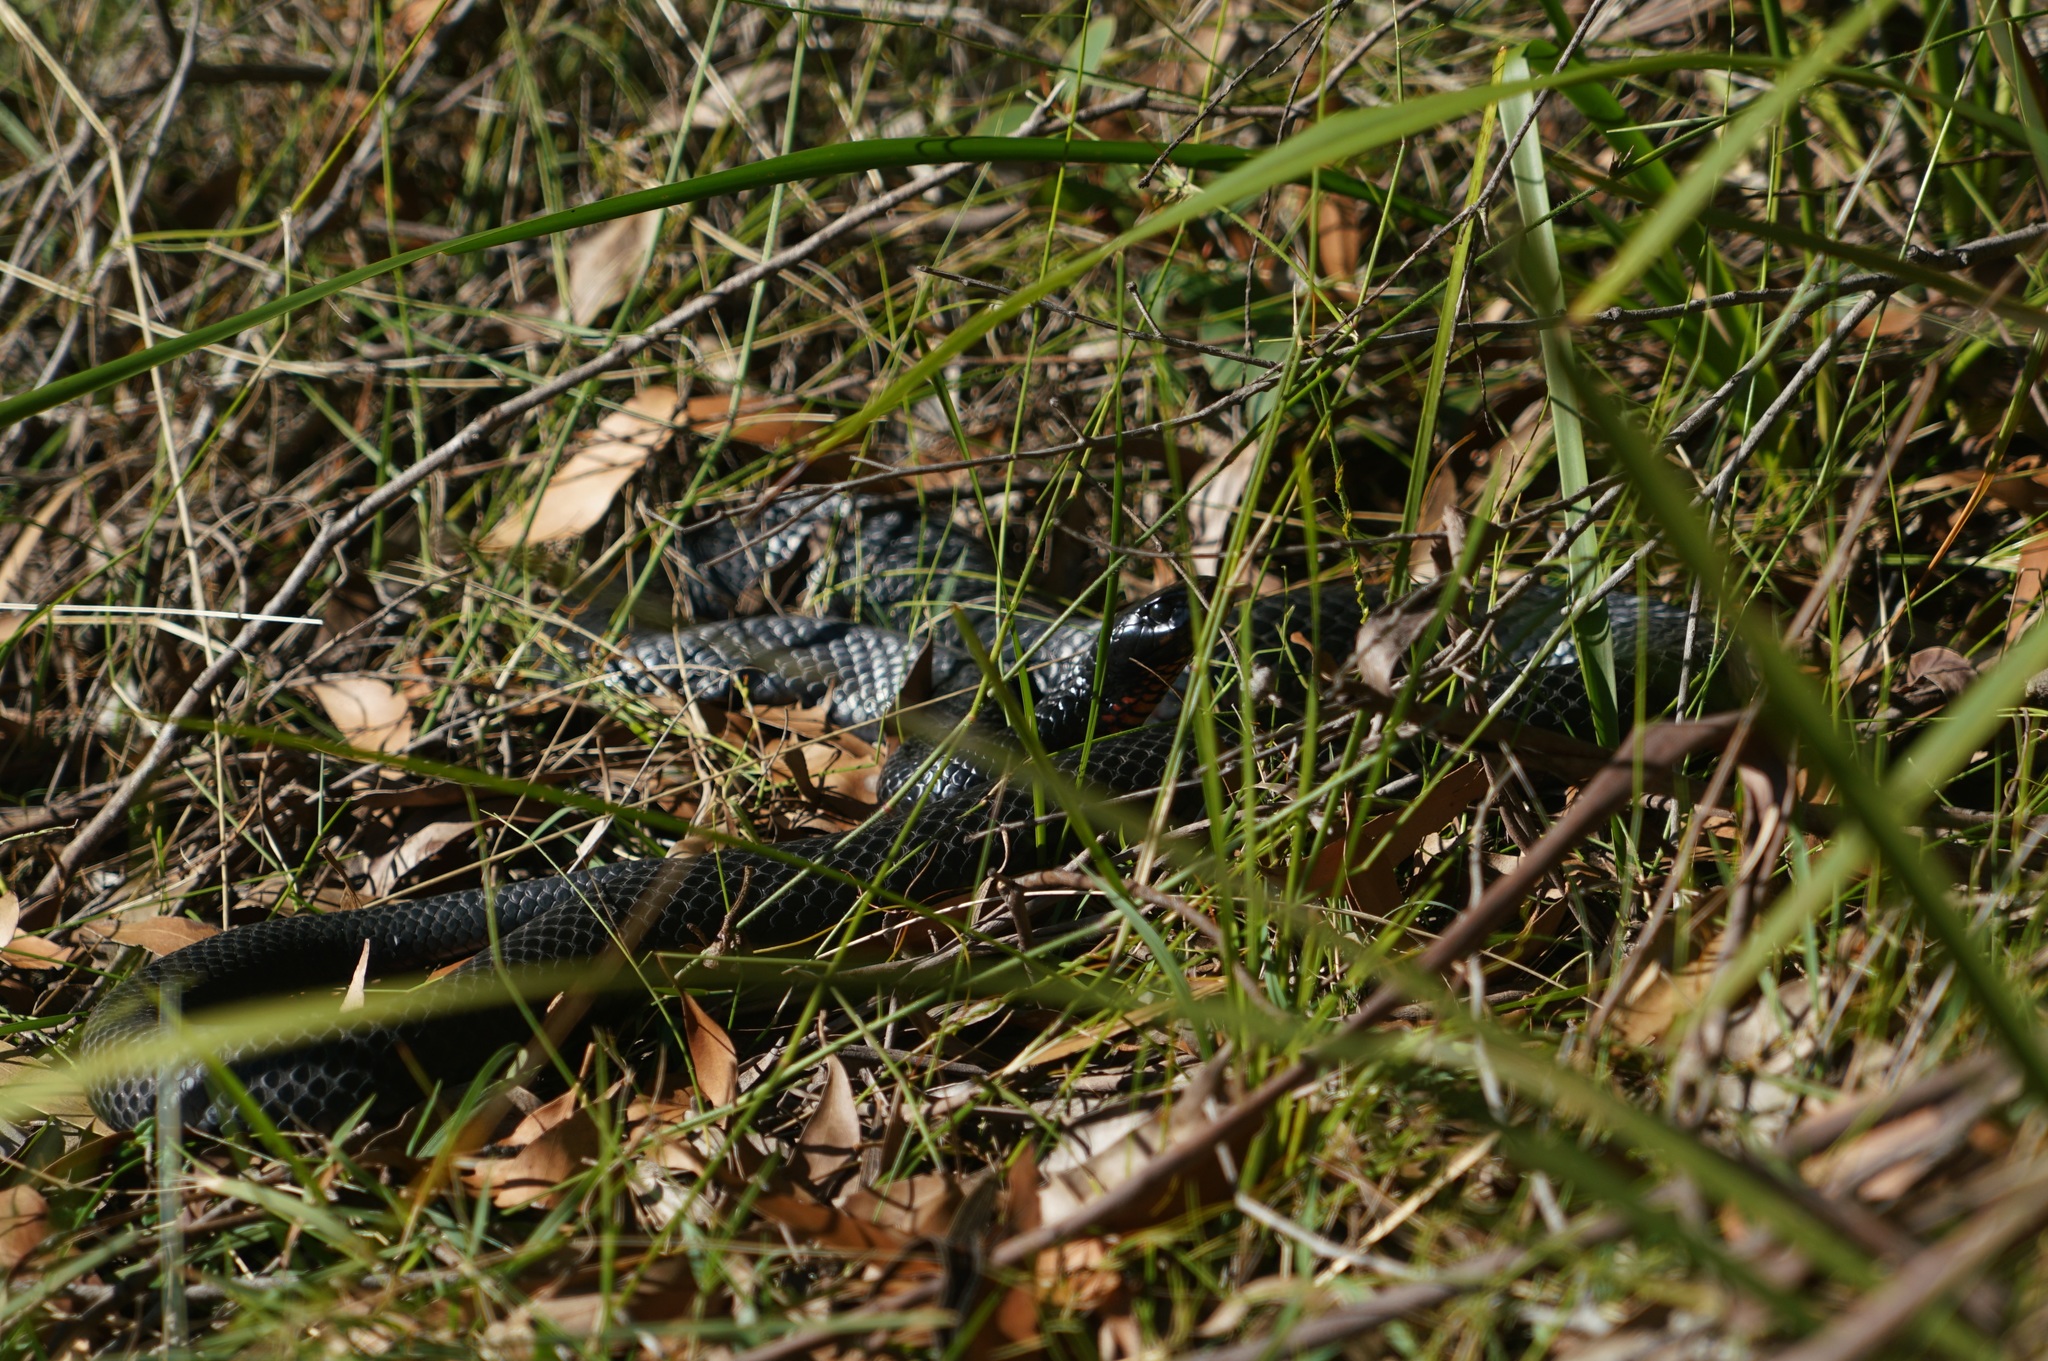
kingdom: Animalia
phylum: Chordata
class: Squamata
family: Elapidae
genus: Pseudechis
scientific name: Pseudechis porphyriacus
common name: Australian black snake
